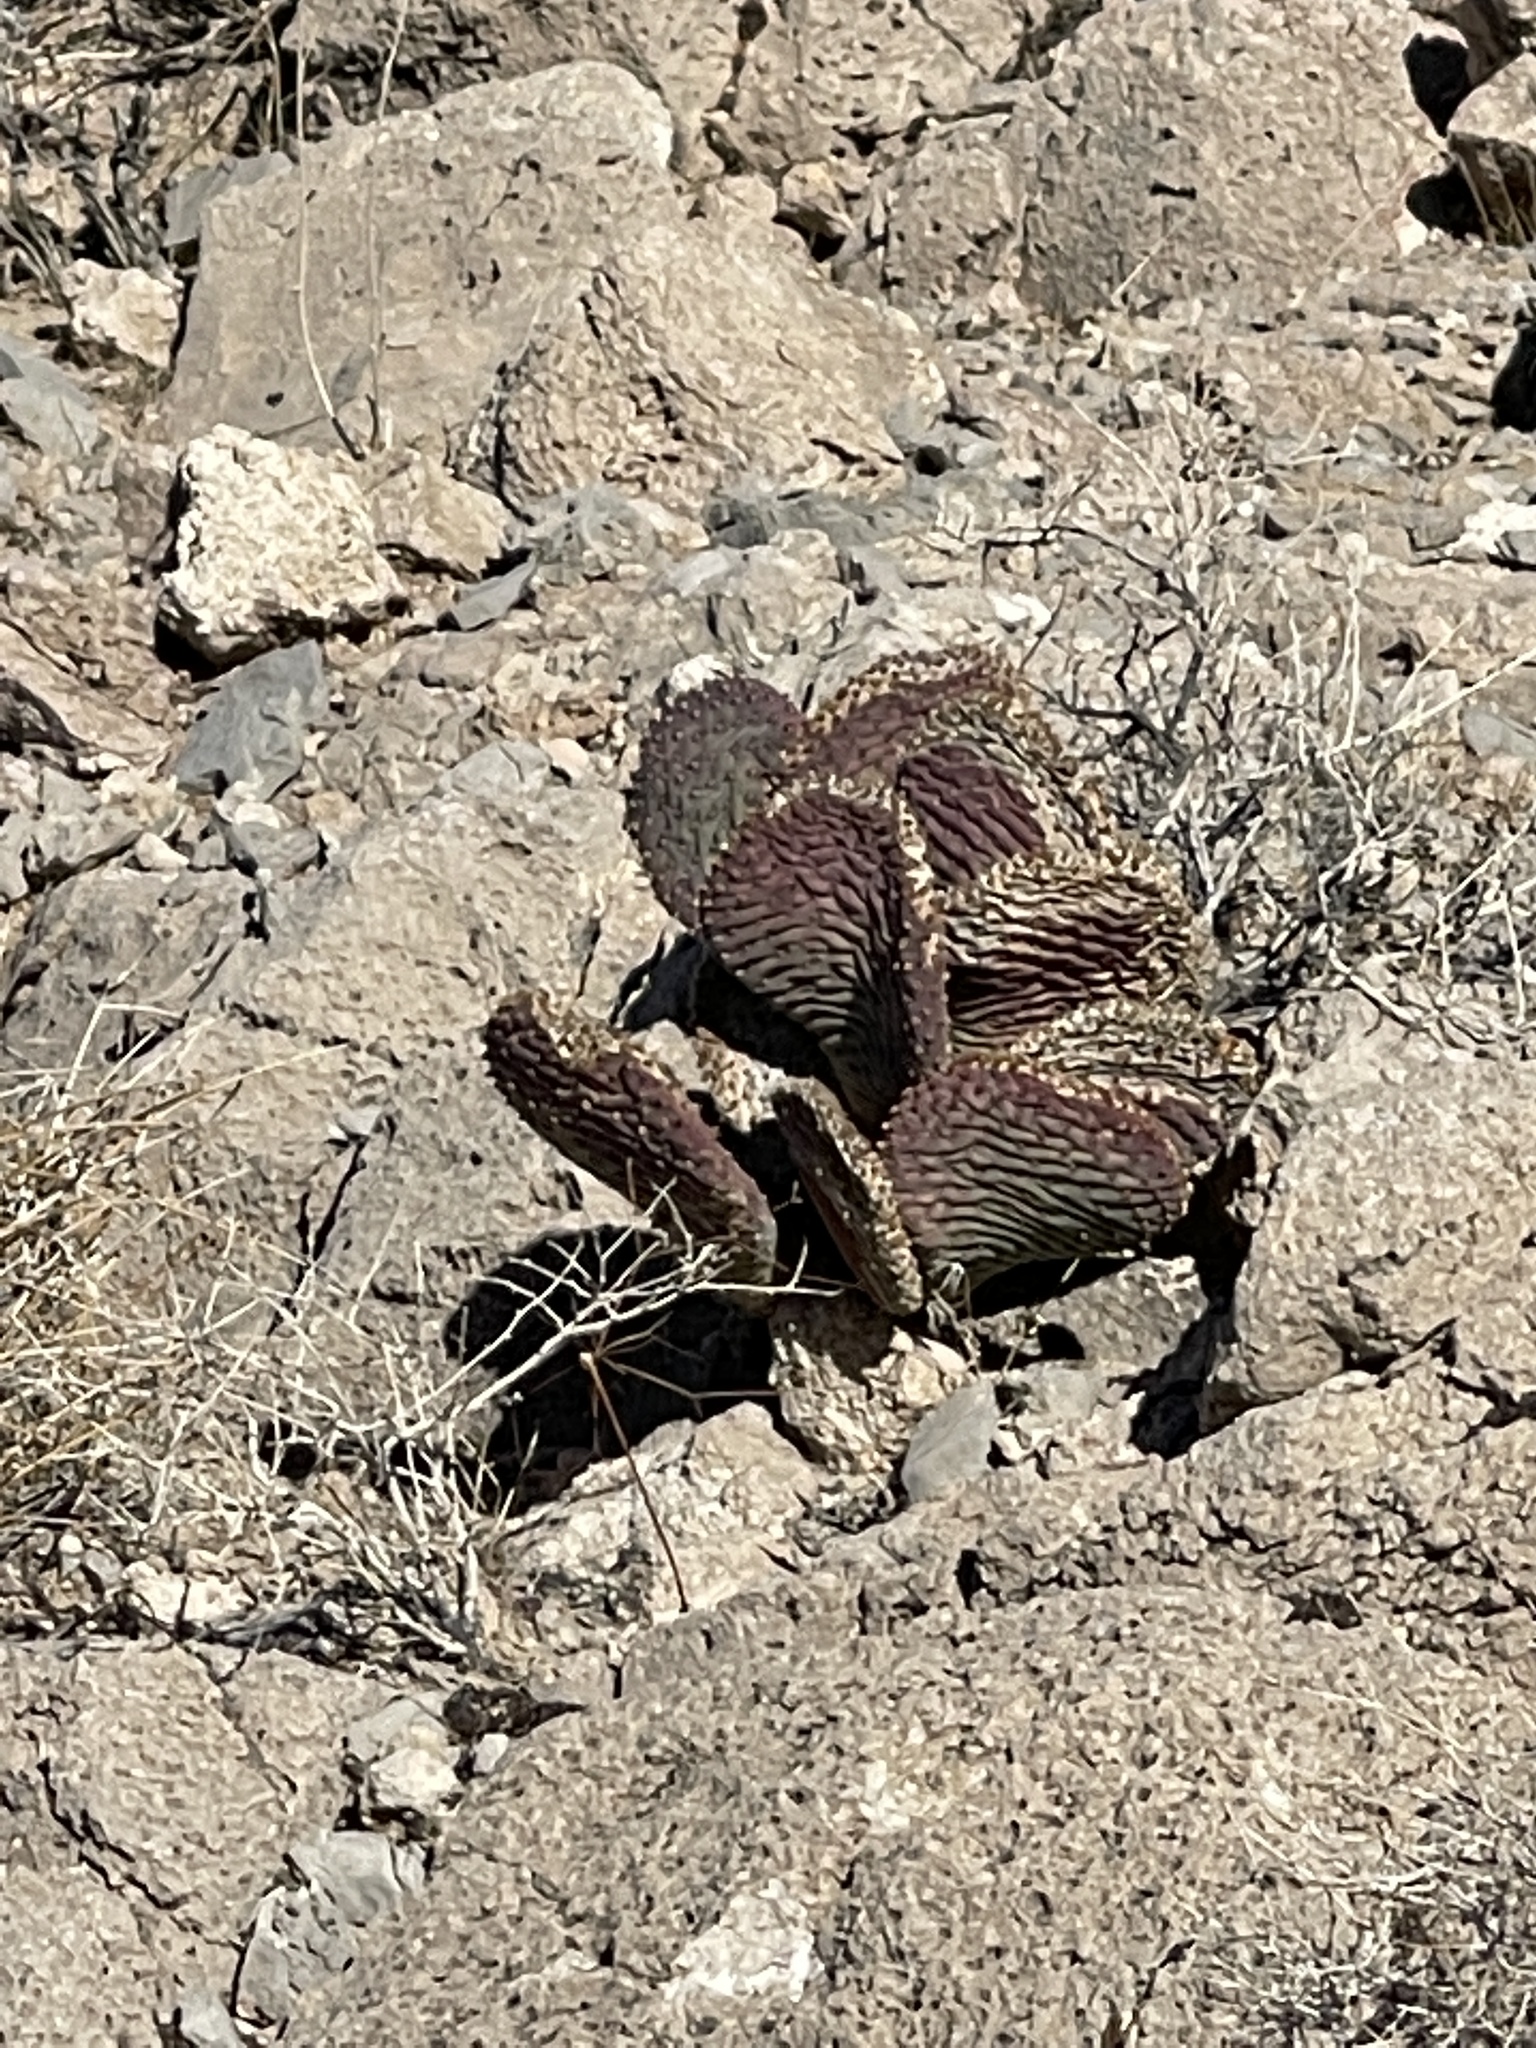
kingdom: Plantae
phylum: Tracheophyta
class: Magnoliopsida
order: Caryophyllales
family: Cactaceae
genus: Opuntia
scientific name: Opuntia basilaris
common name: Beavertail prickly-pear
